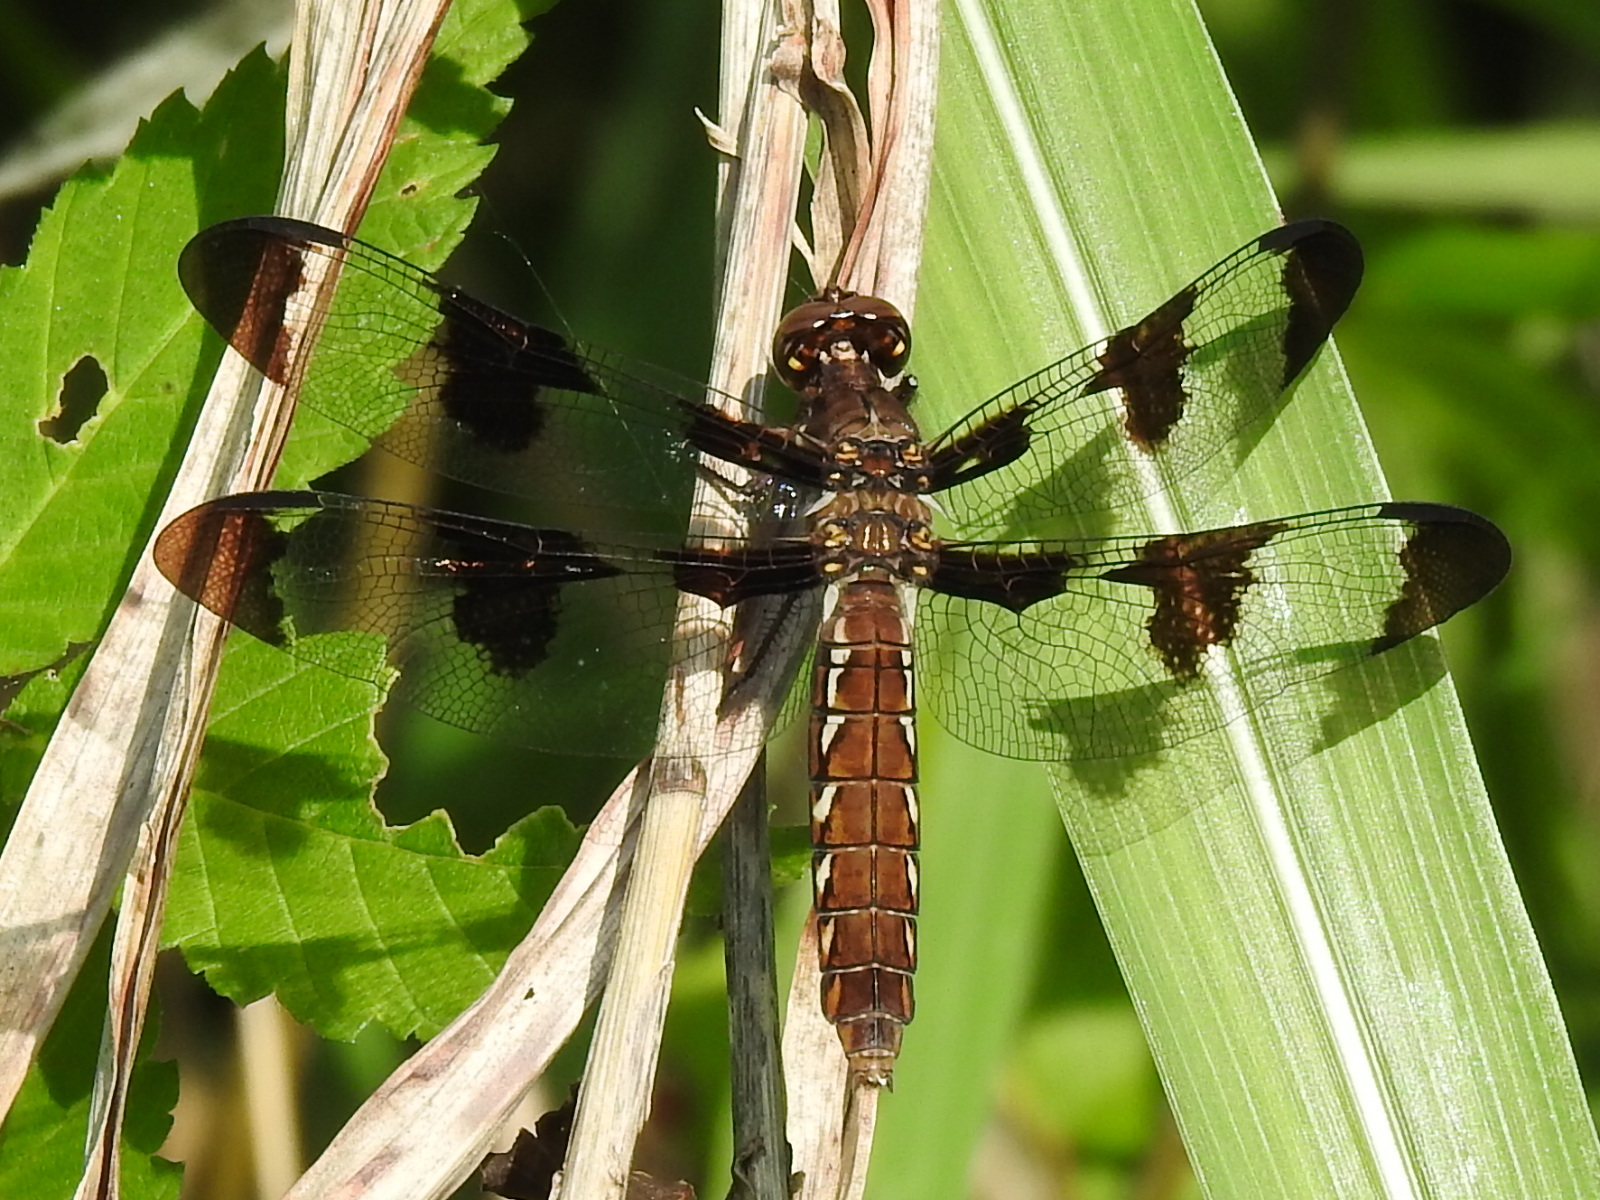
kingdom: Animalia
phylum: Arthropoda
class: Insecta
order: Odonata
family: Libellulidae
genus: Plathemis
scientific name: Plathemis lydia
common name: Common whitetail
